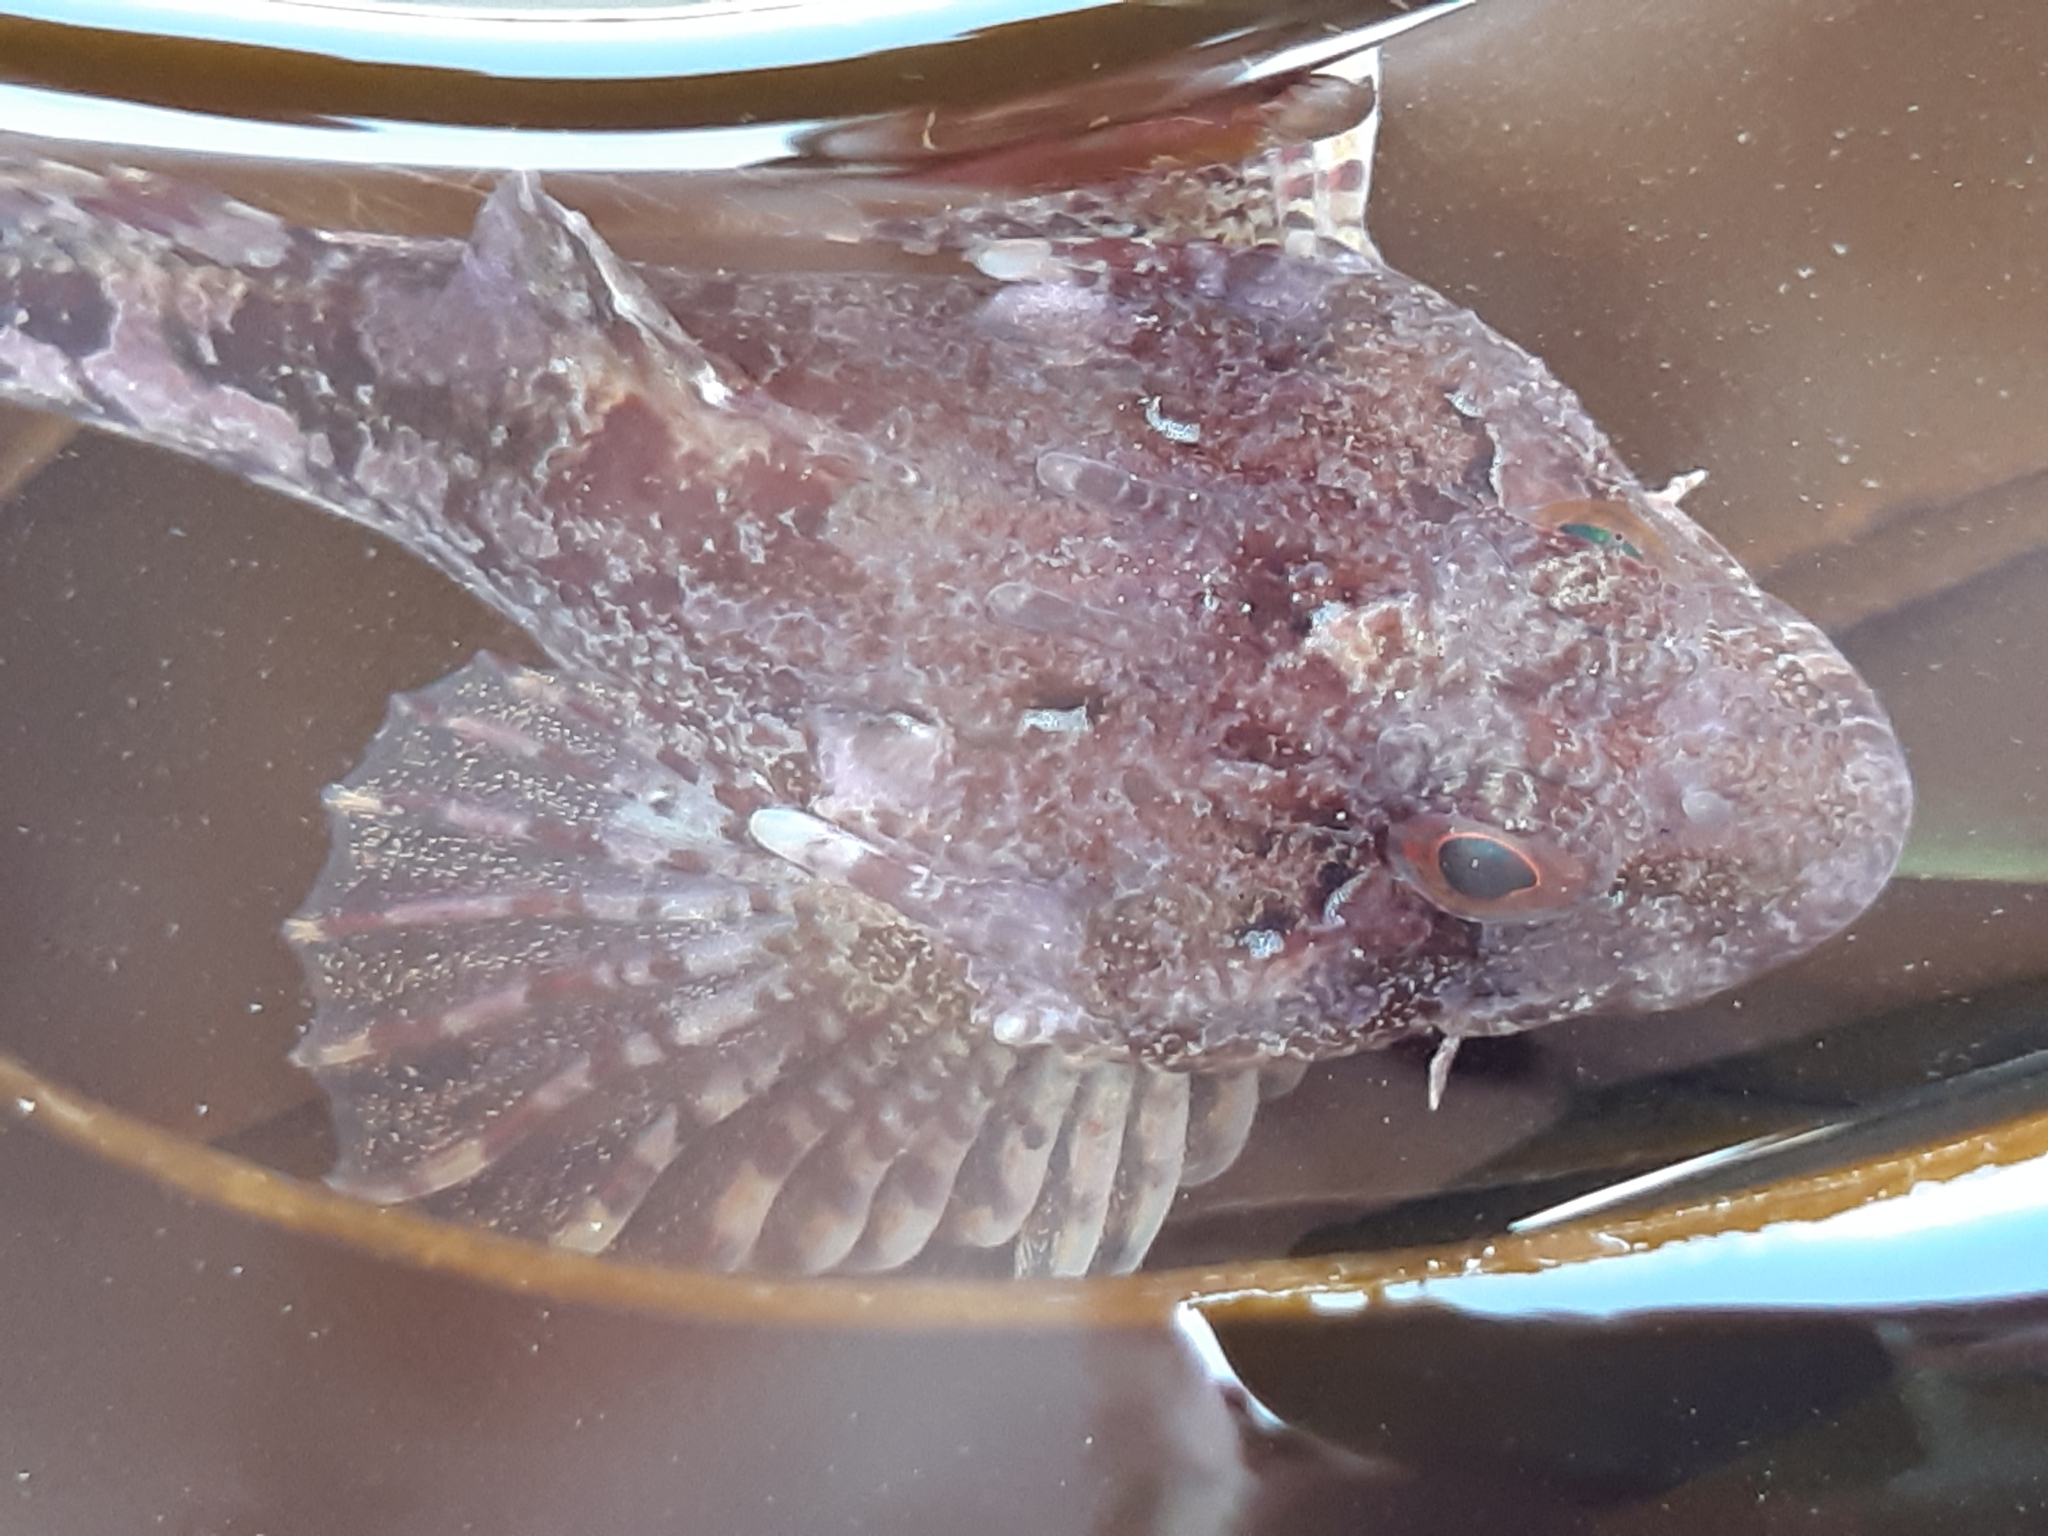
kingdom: Animalia
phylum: Chordata
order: Scorpaeniformes
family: Cottidae
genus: Taurulus
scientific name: Taurulus bubalis
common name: Sea scorpion
